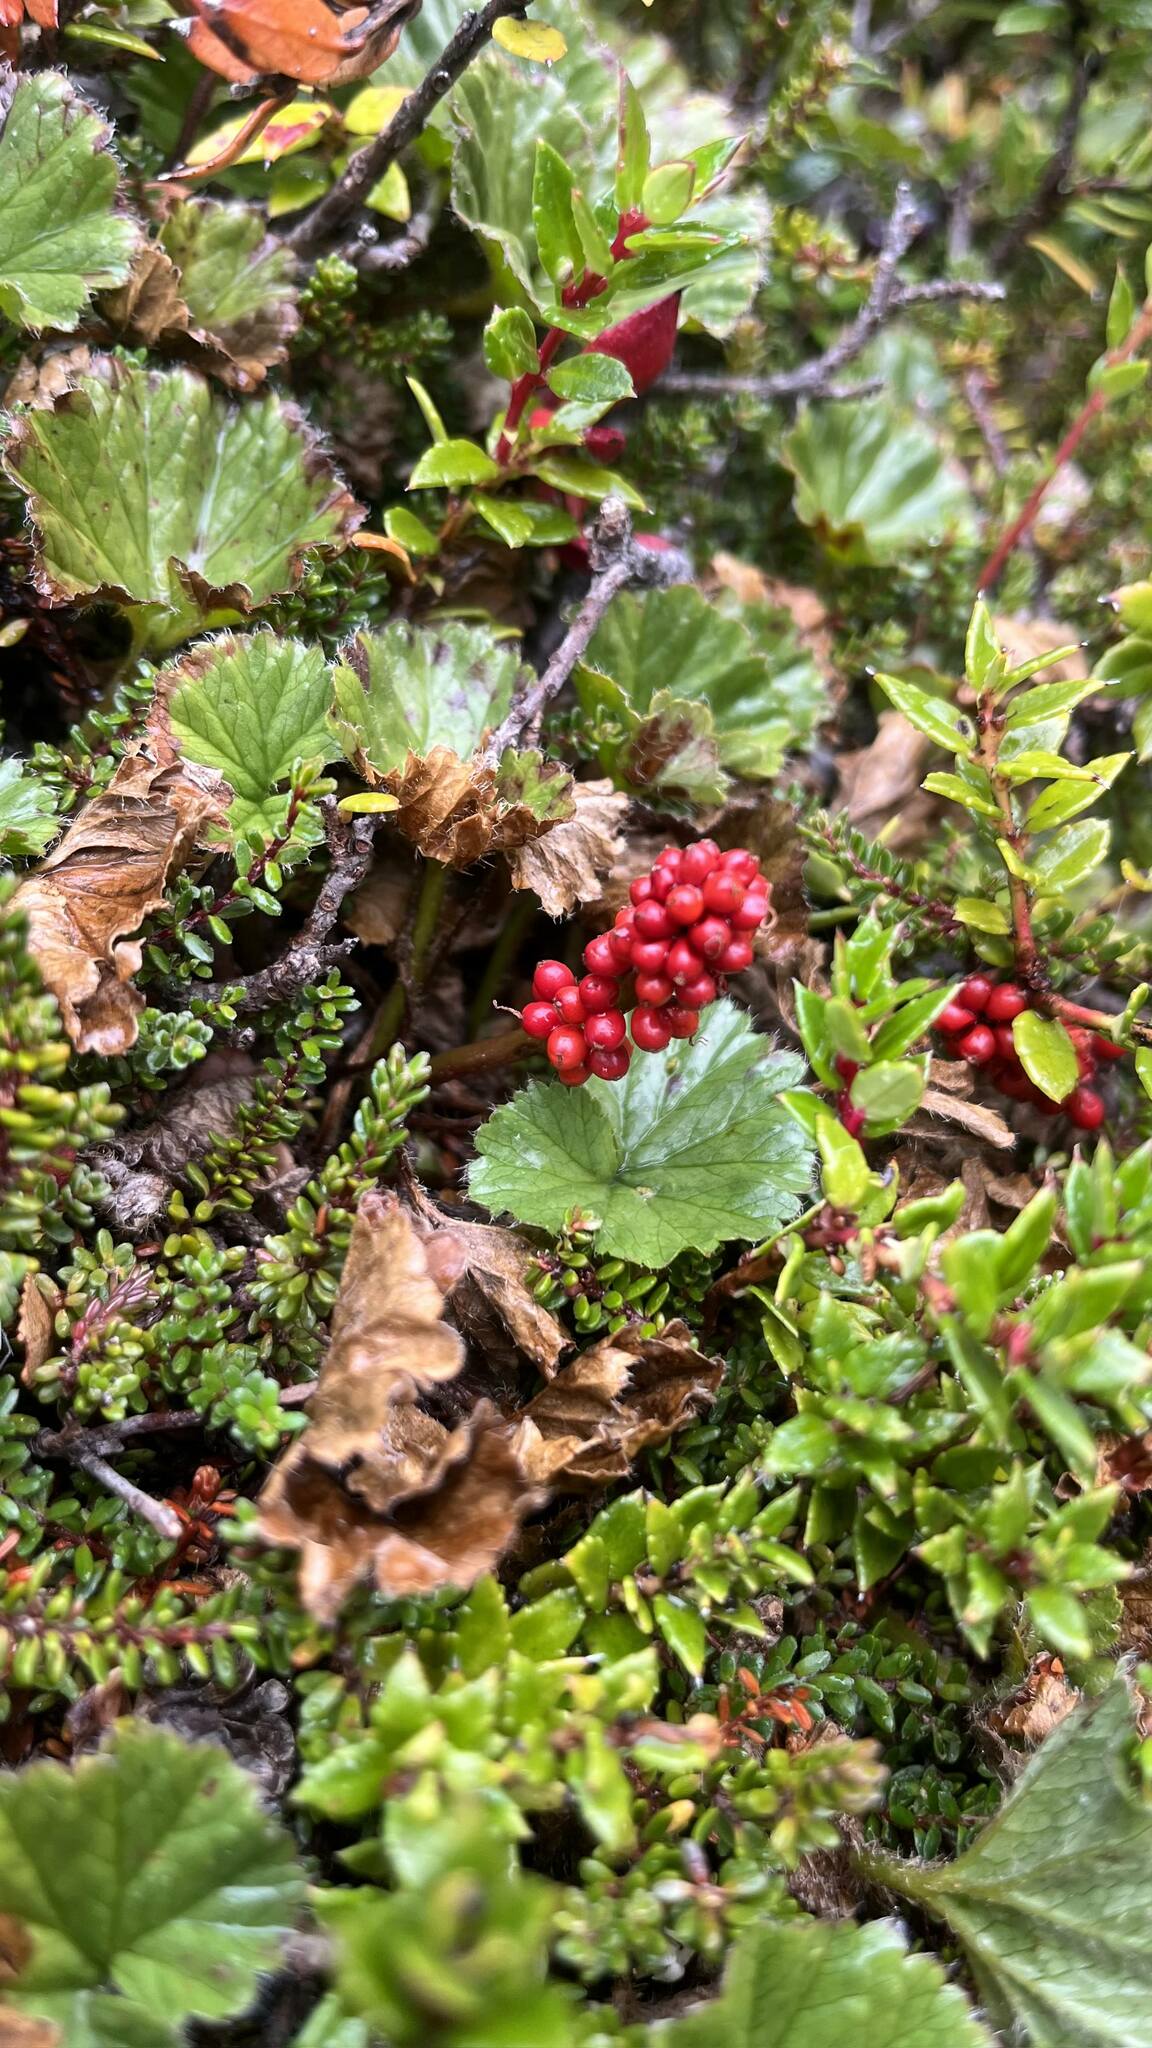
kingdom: Plantae
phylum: Tracheophyta
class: Magnoliopsida
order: Gunnerales
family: Gunneraceae
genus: Gunnera
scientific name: Gunnera magellanica
